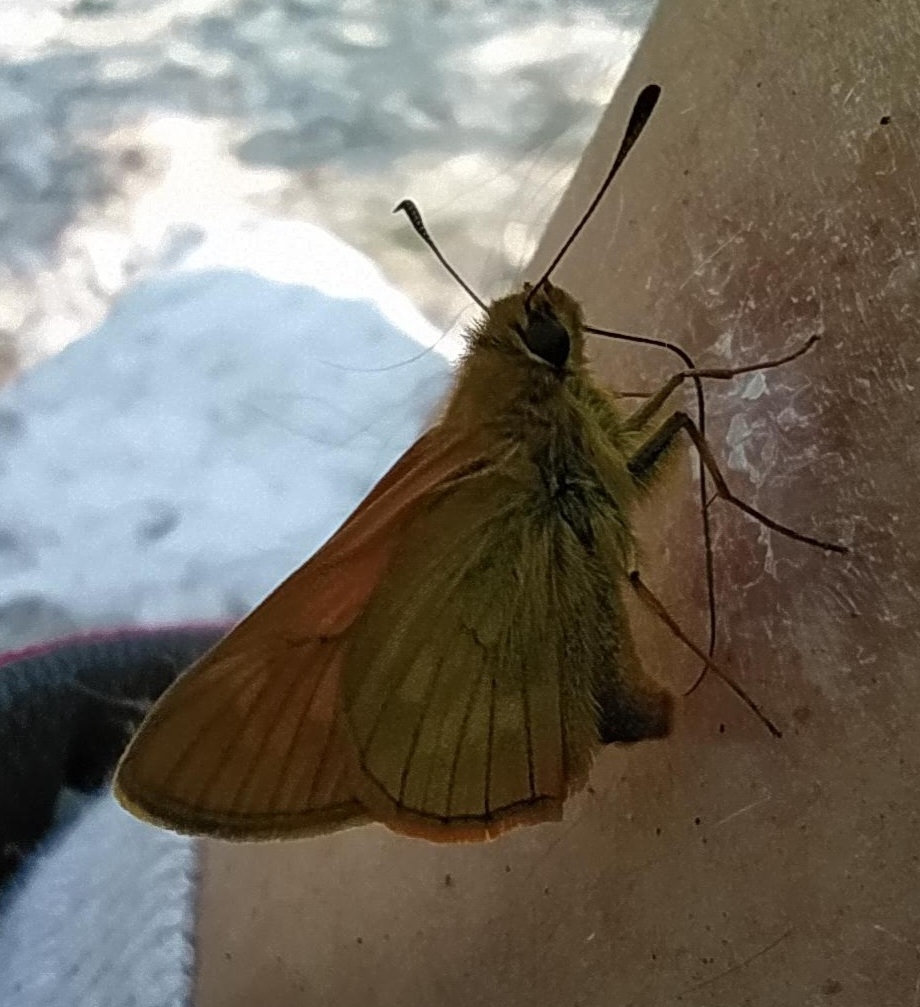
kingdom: Animalia
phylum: Arthropoda
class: Insecta
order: Lepidoptera
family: Hesperiidae
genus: Ochlodes
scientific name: Ochlodes venata
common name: Large skipper
